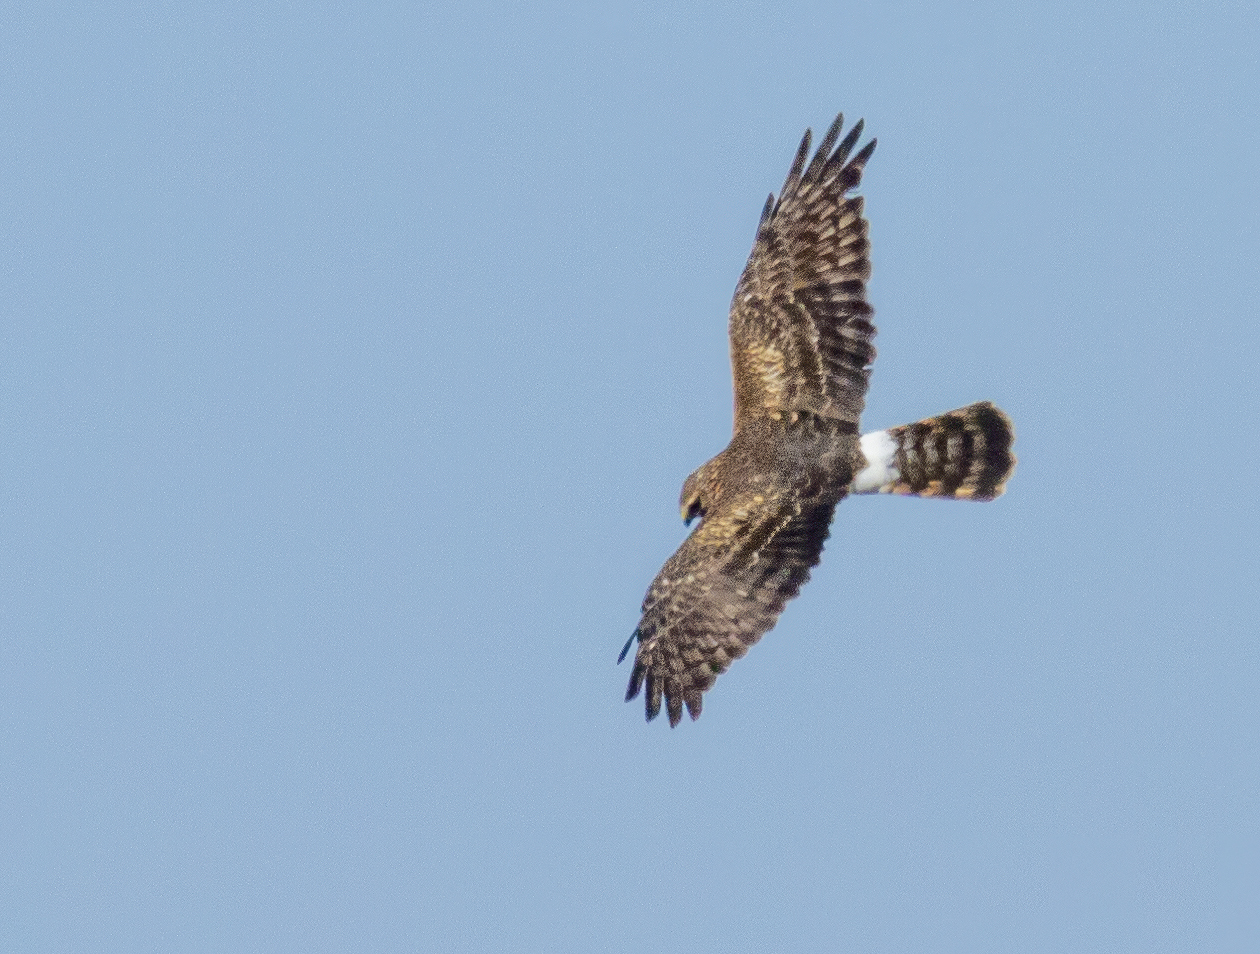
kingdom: Animalia
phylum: Chordata
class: Aves
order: Accipitriformes
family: Accipitridae
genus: Circus
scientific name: Circus cyaneus
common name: Hen harrier
